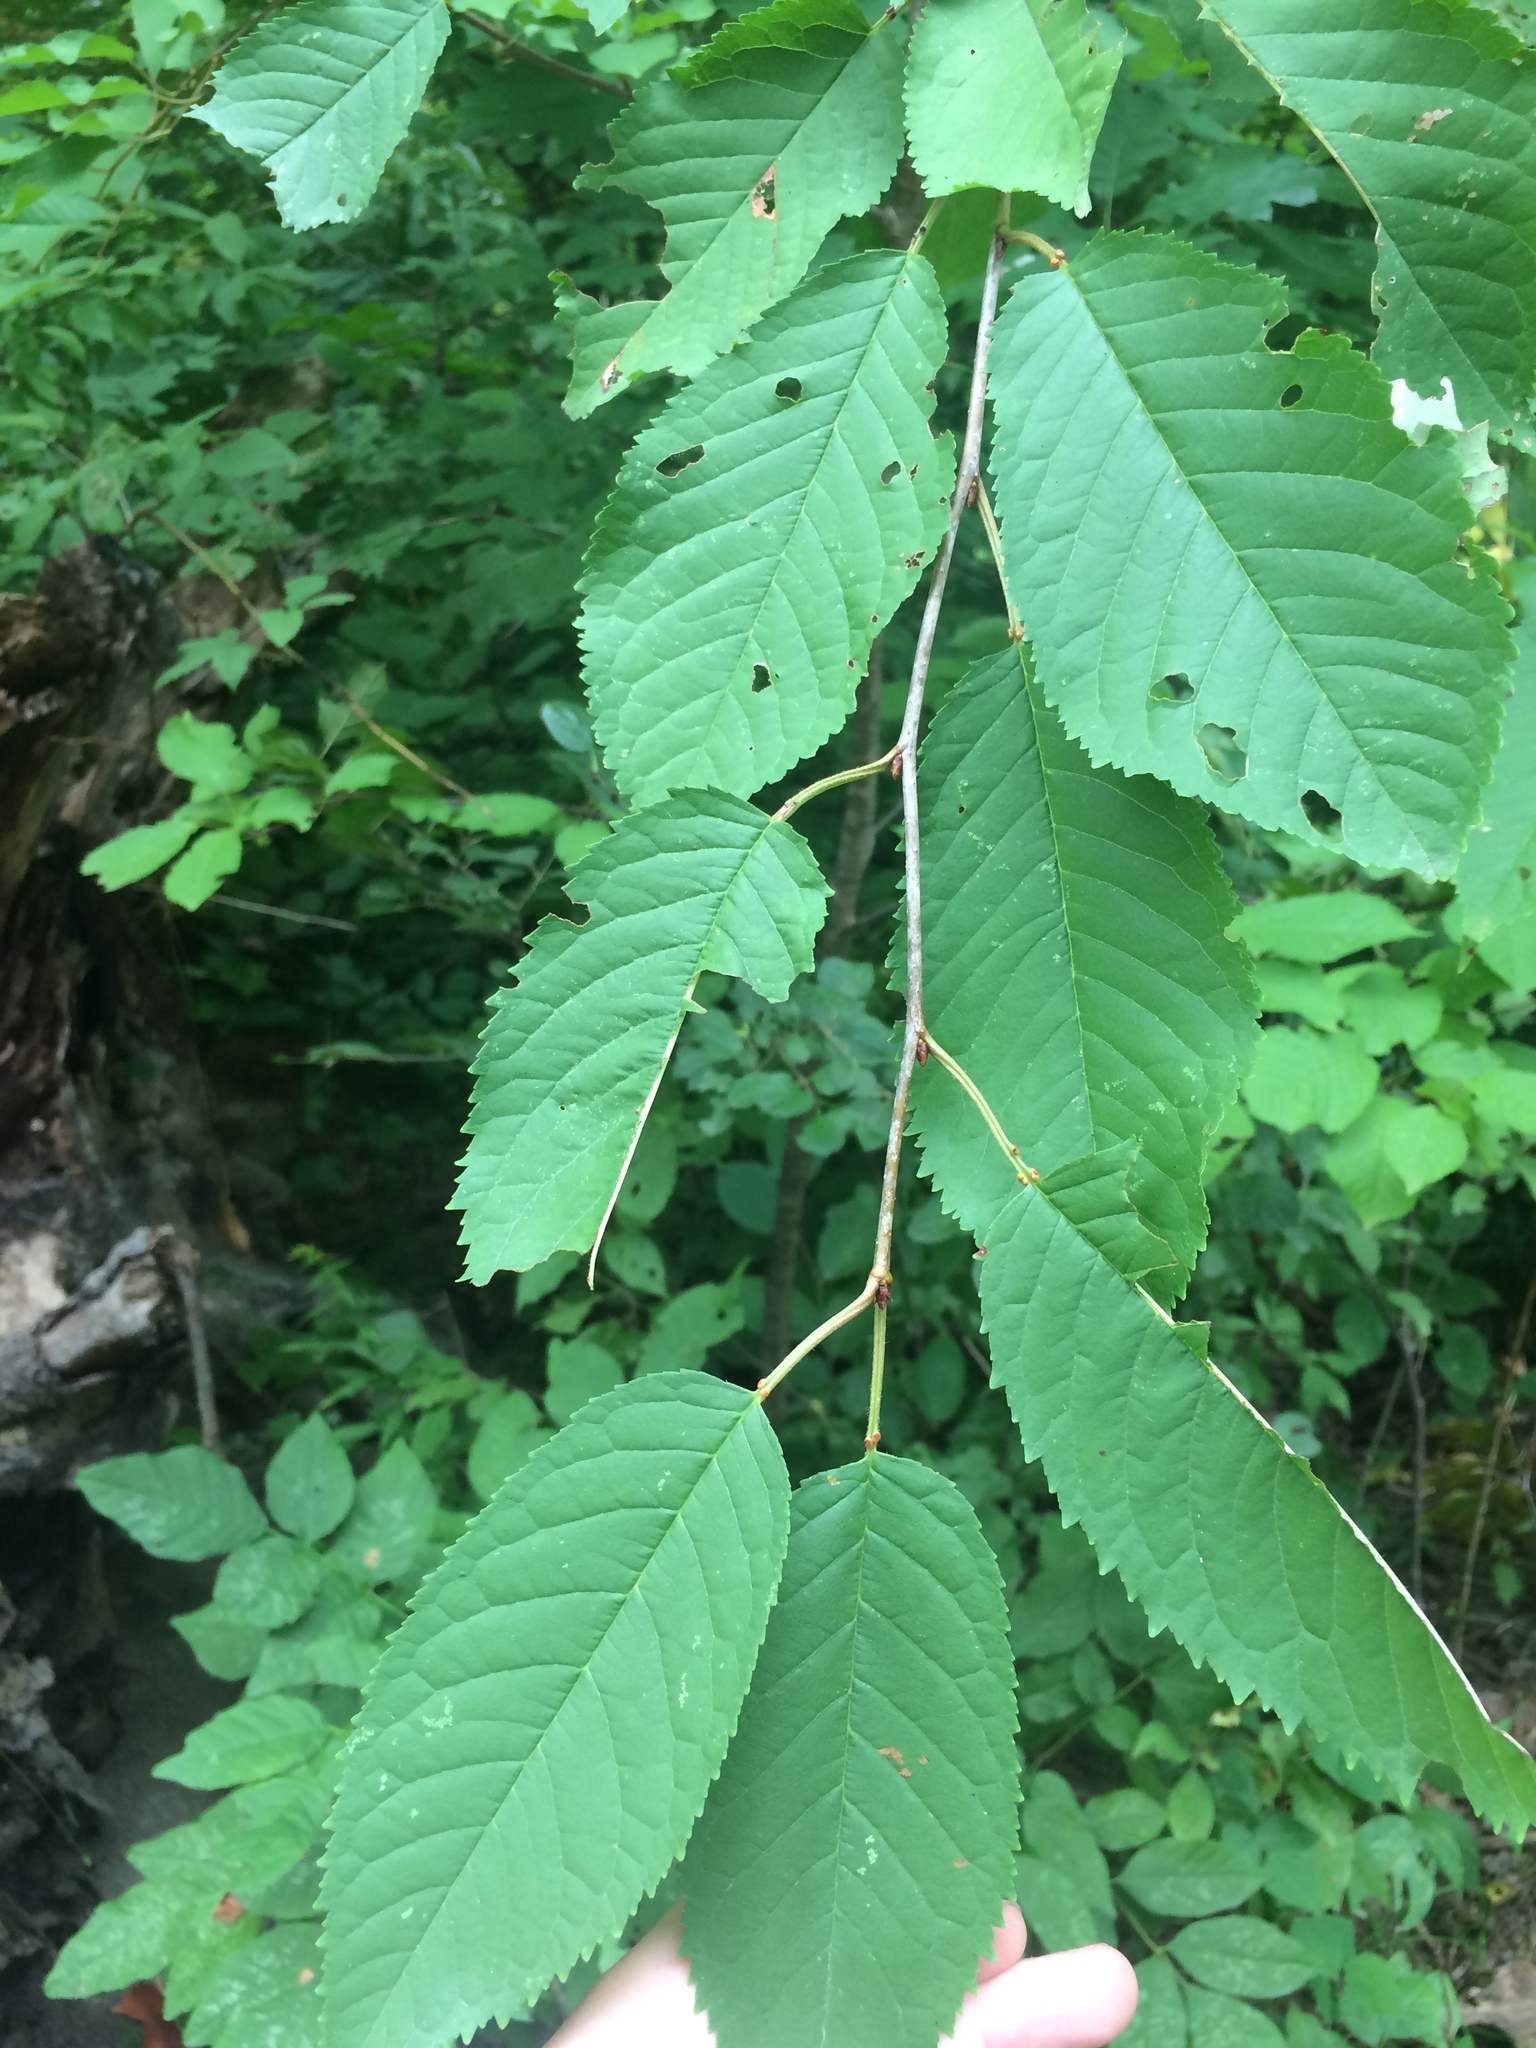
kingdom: Plantae
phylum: Tracheophyta
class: Magnoliopsida
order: Rosales
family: Rosaceae
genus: Prunus
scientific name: Prunus avium
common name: Sweet cherry
